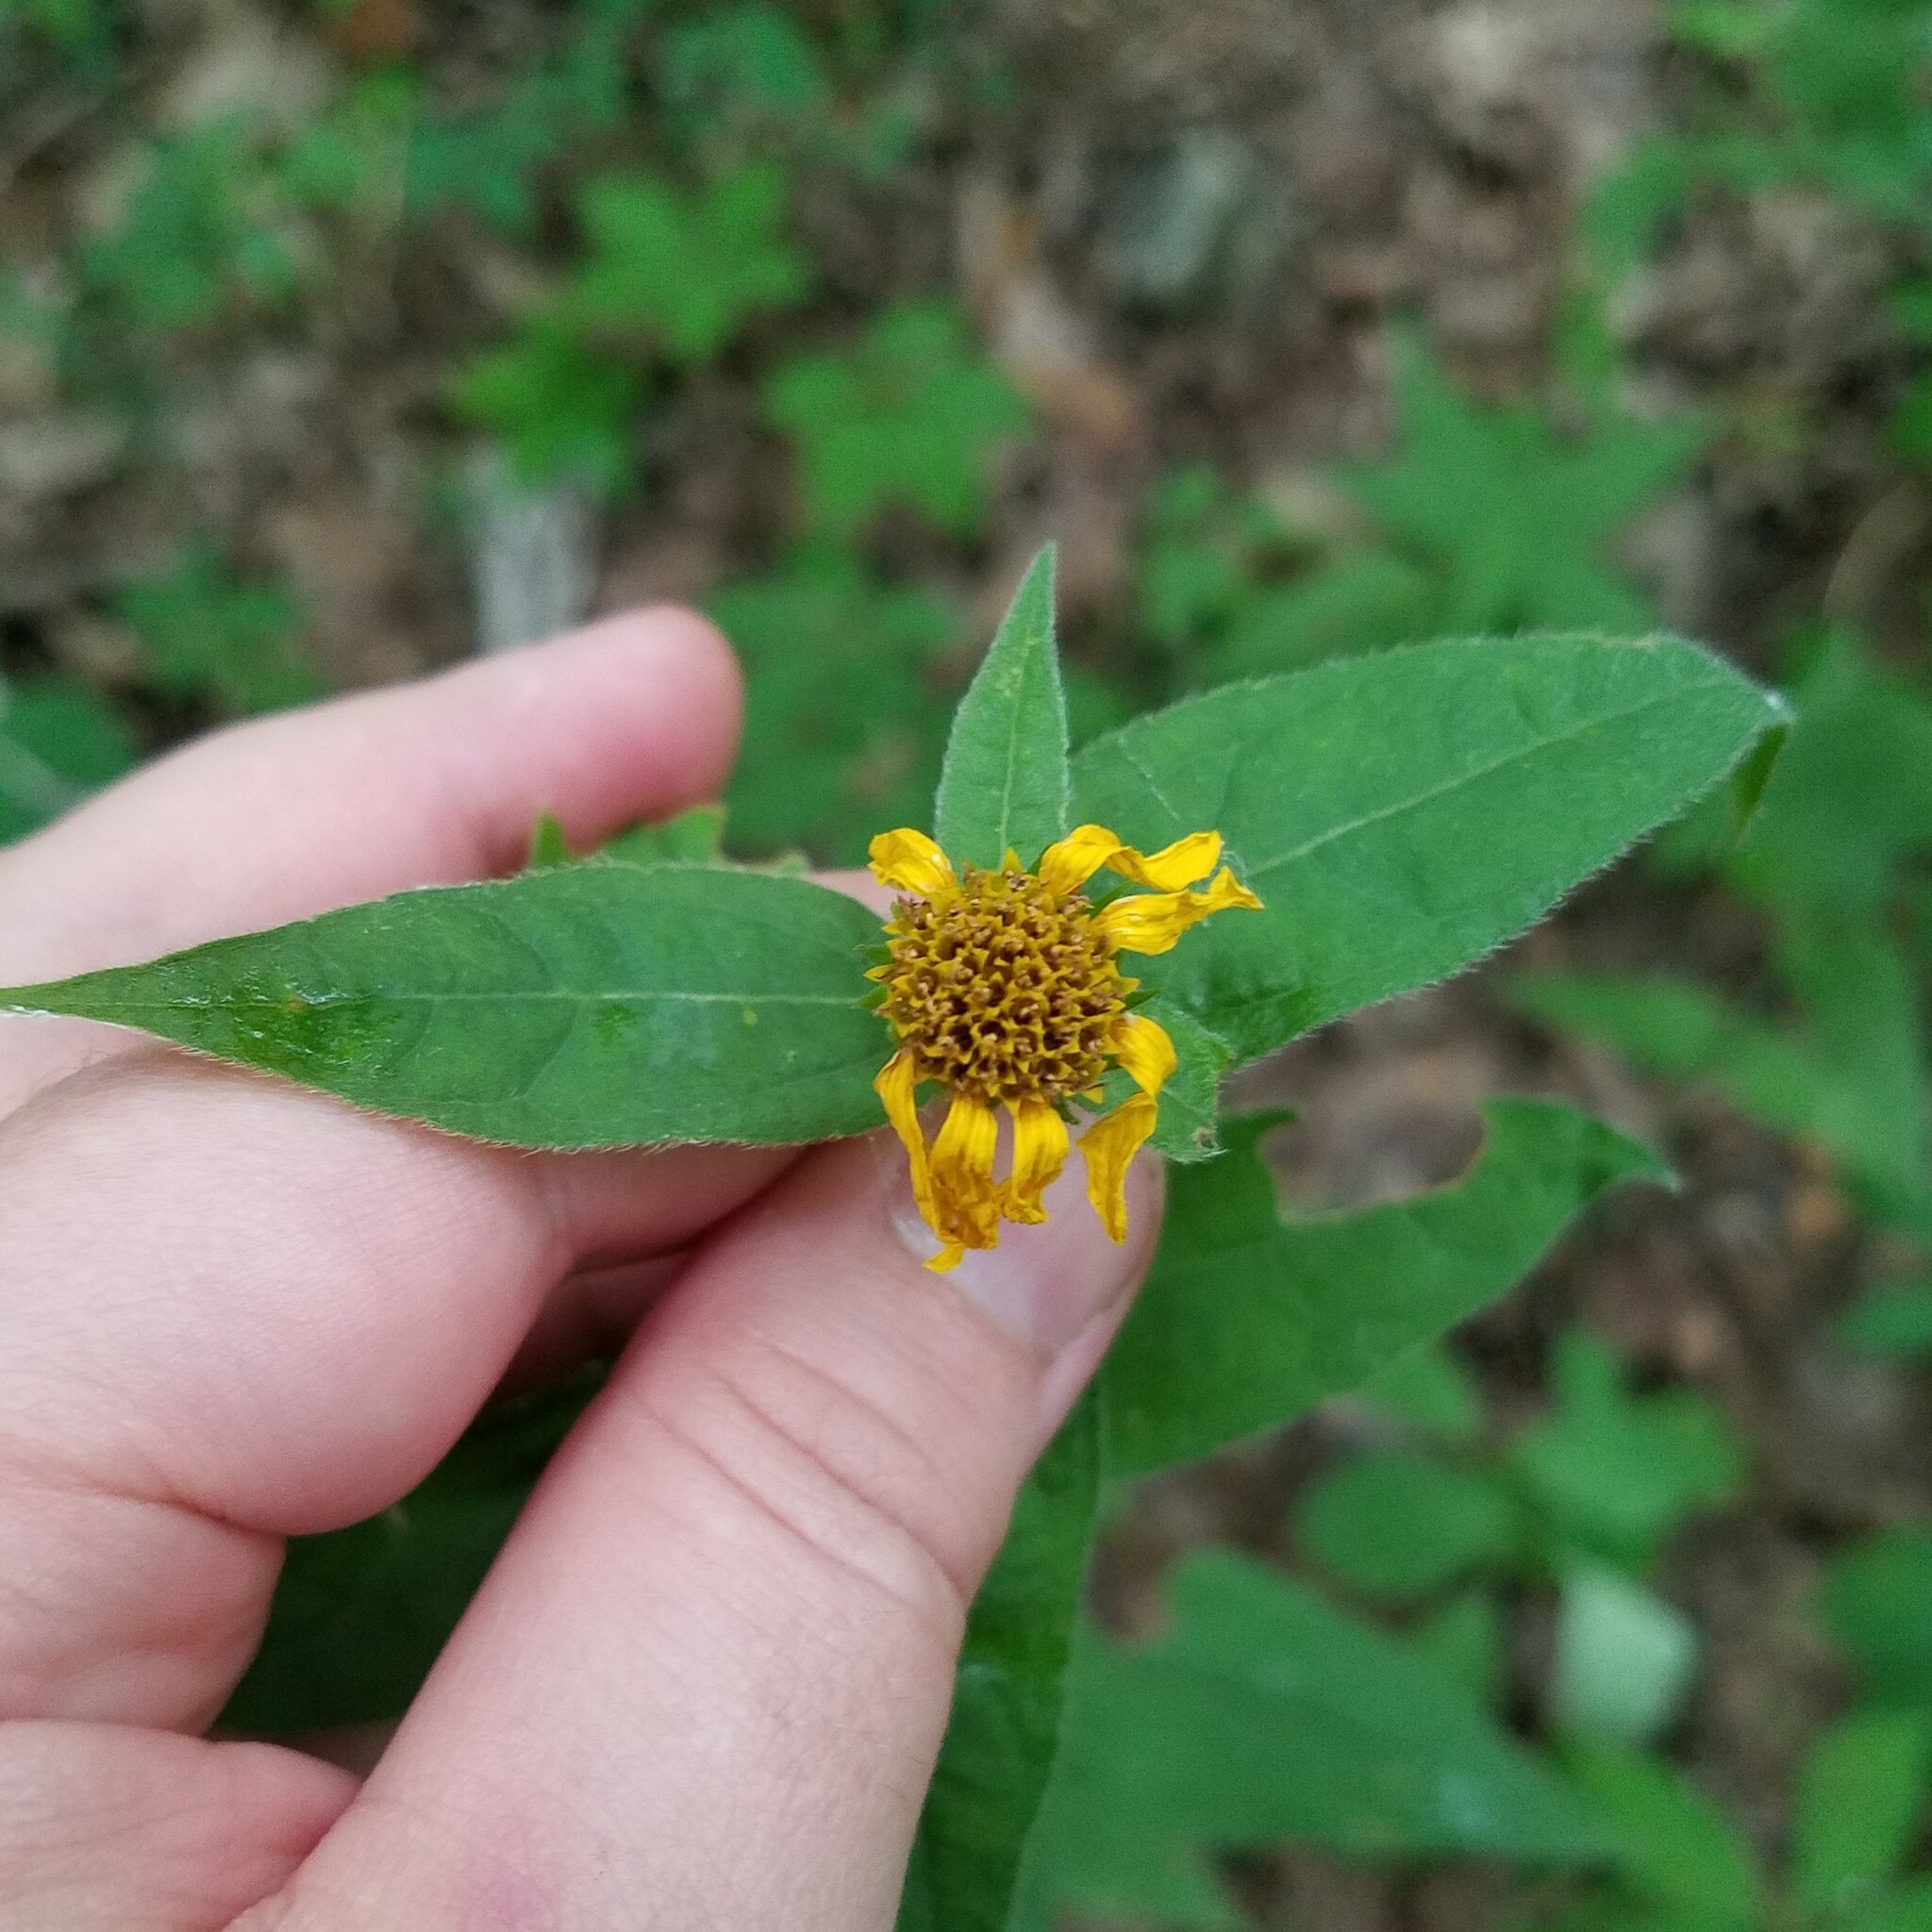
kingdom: Plantae
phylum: Tracheophyta
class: Magnoliopsida
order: Asterales
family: Asteraceae
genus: Helianthus
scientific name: Helianthus divaricatus
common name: Divergent sunflower
